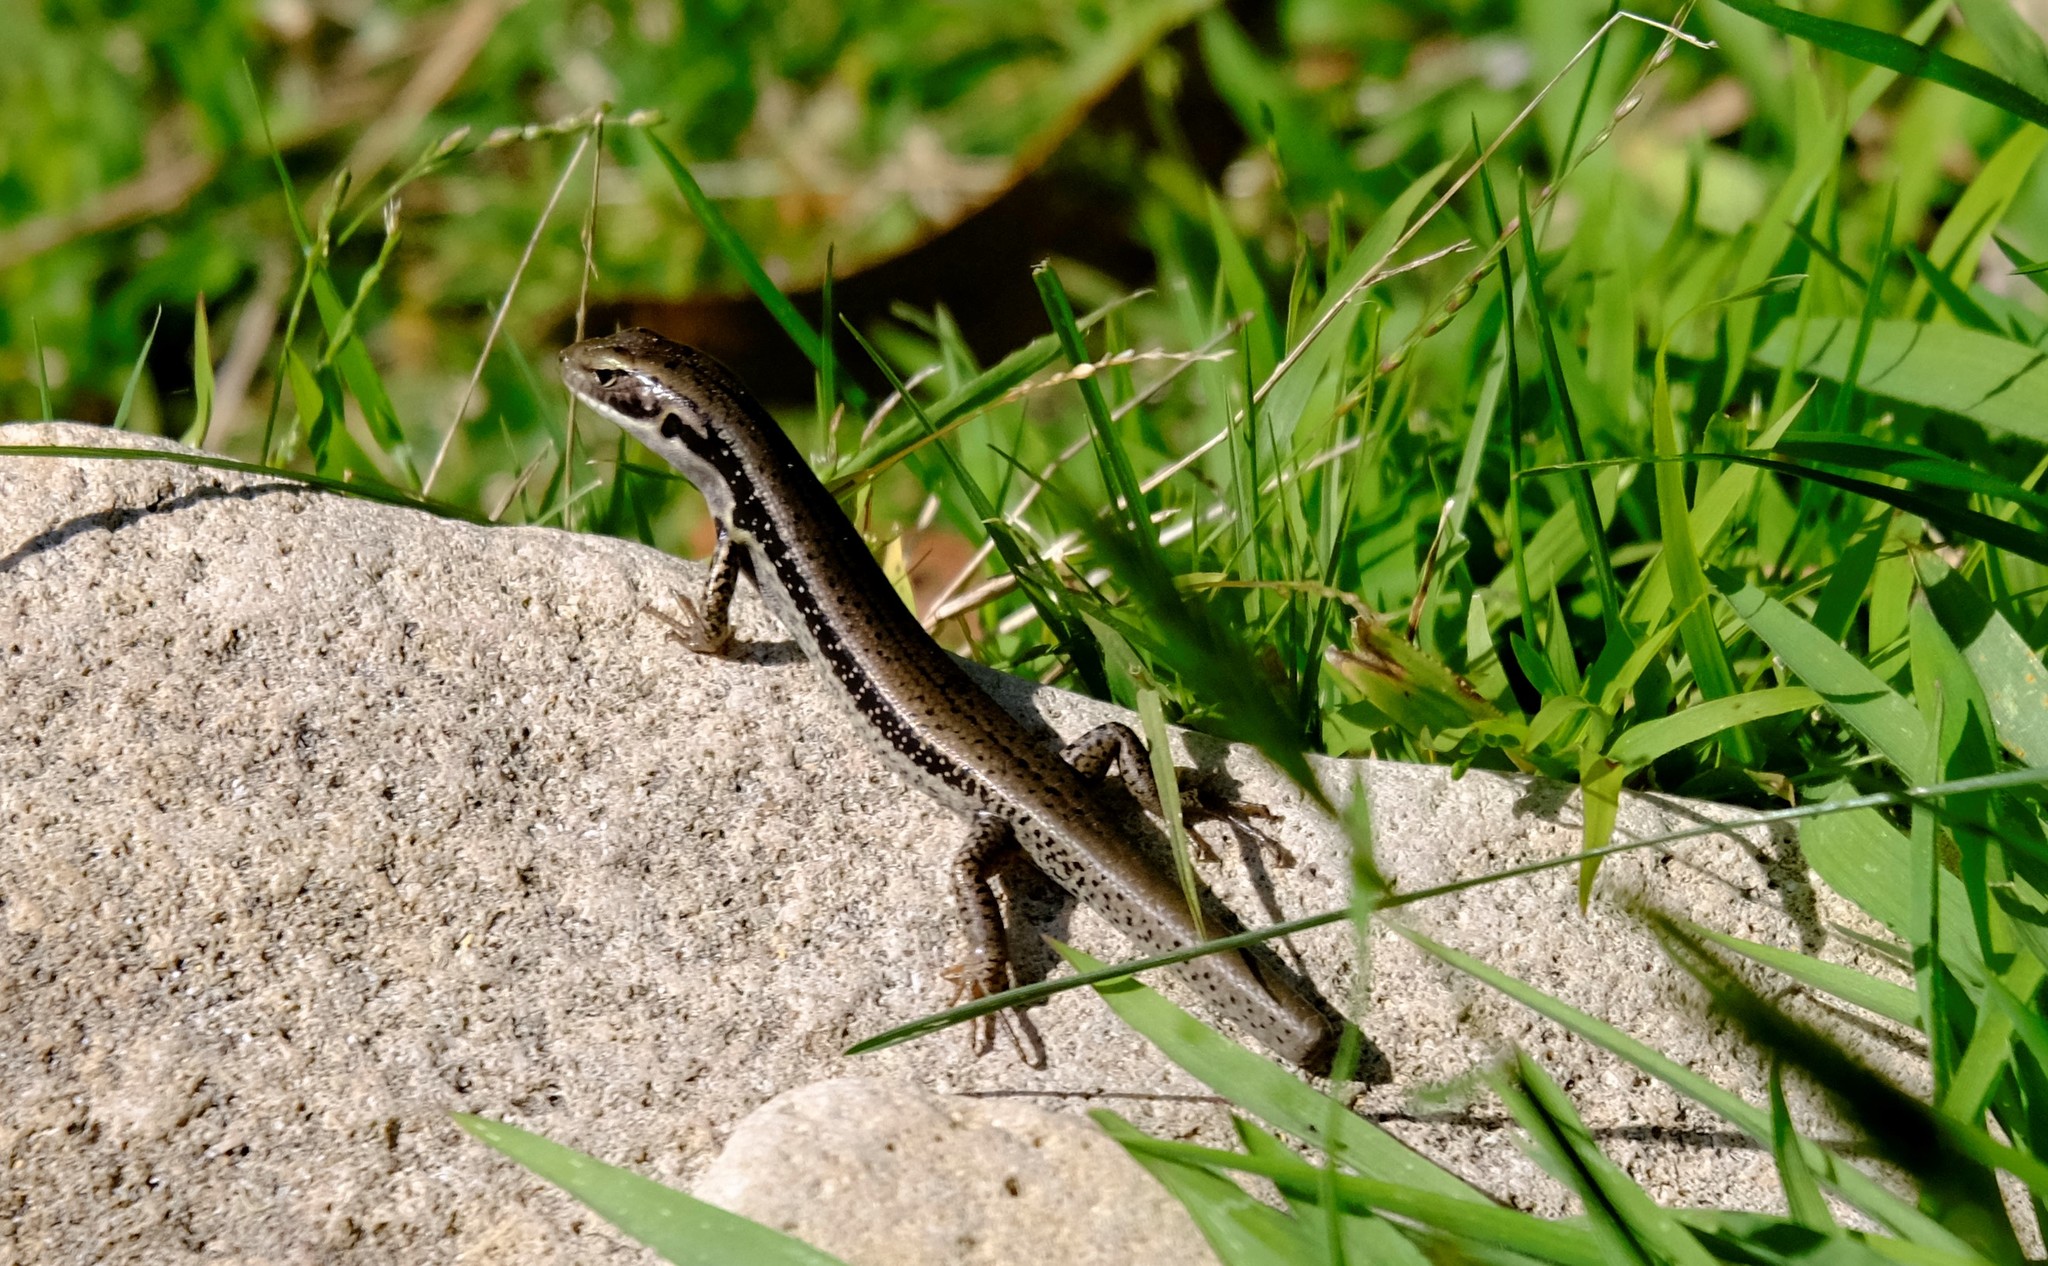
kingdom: Animalia
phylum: Chordata
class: Squamata
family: Scincidae
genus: Eulamprus
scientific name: Eulamprus tympanum
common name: Cool-temperate water-skink
